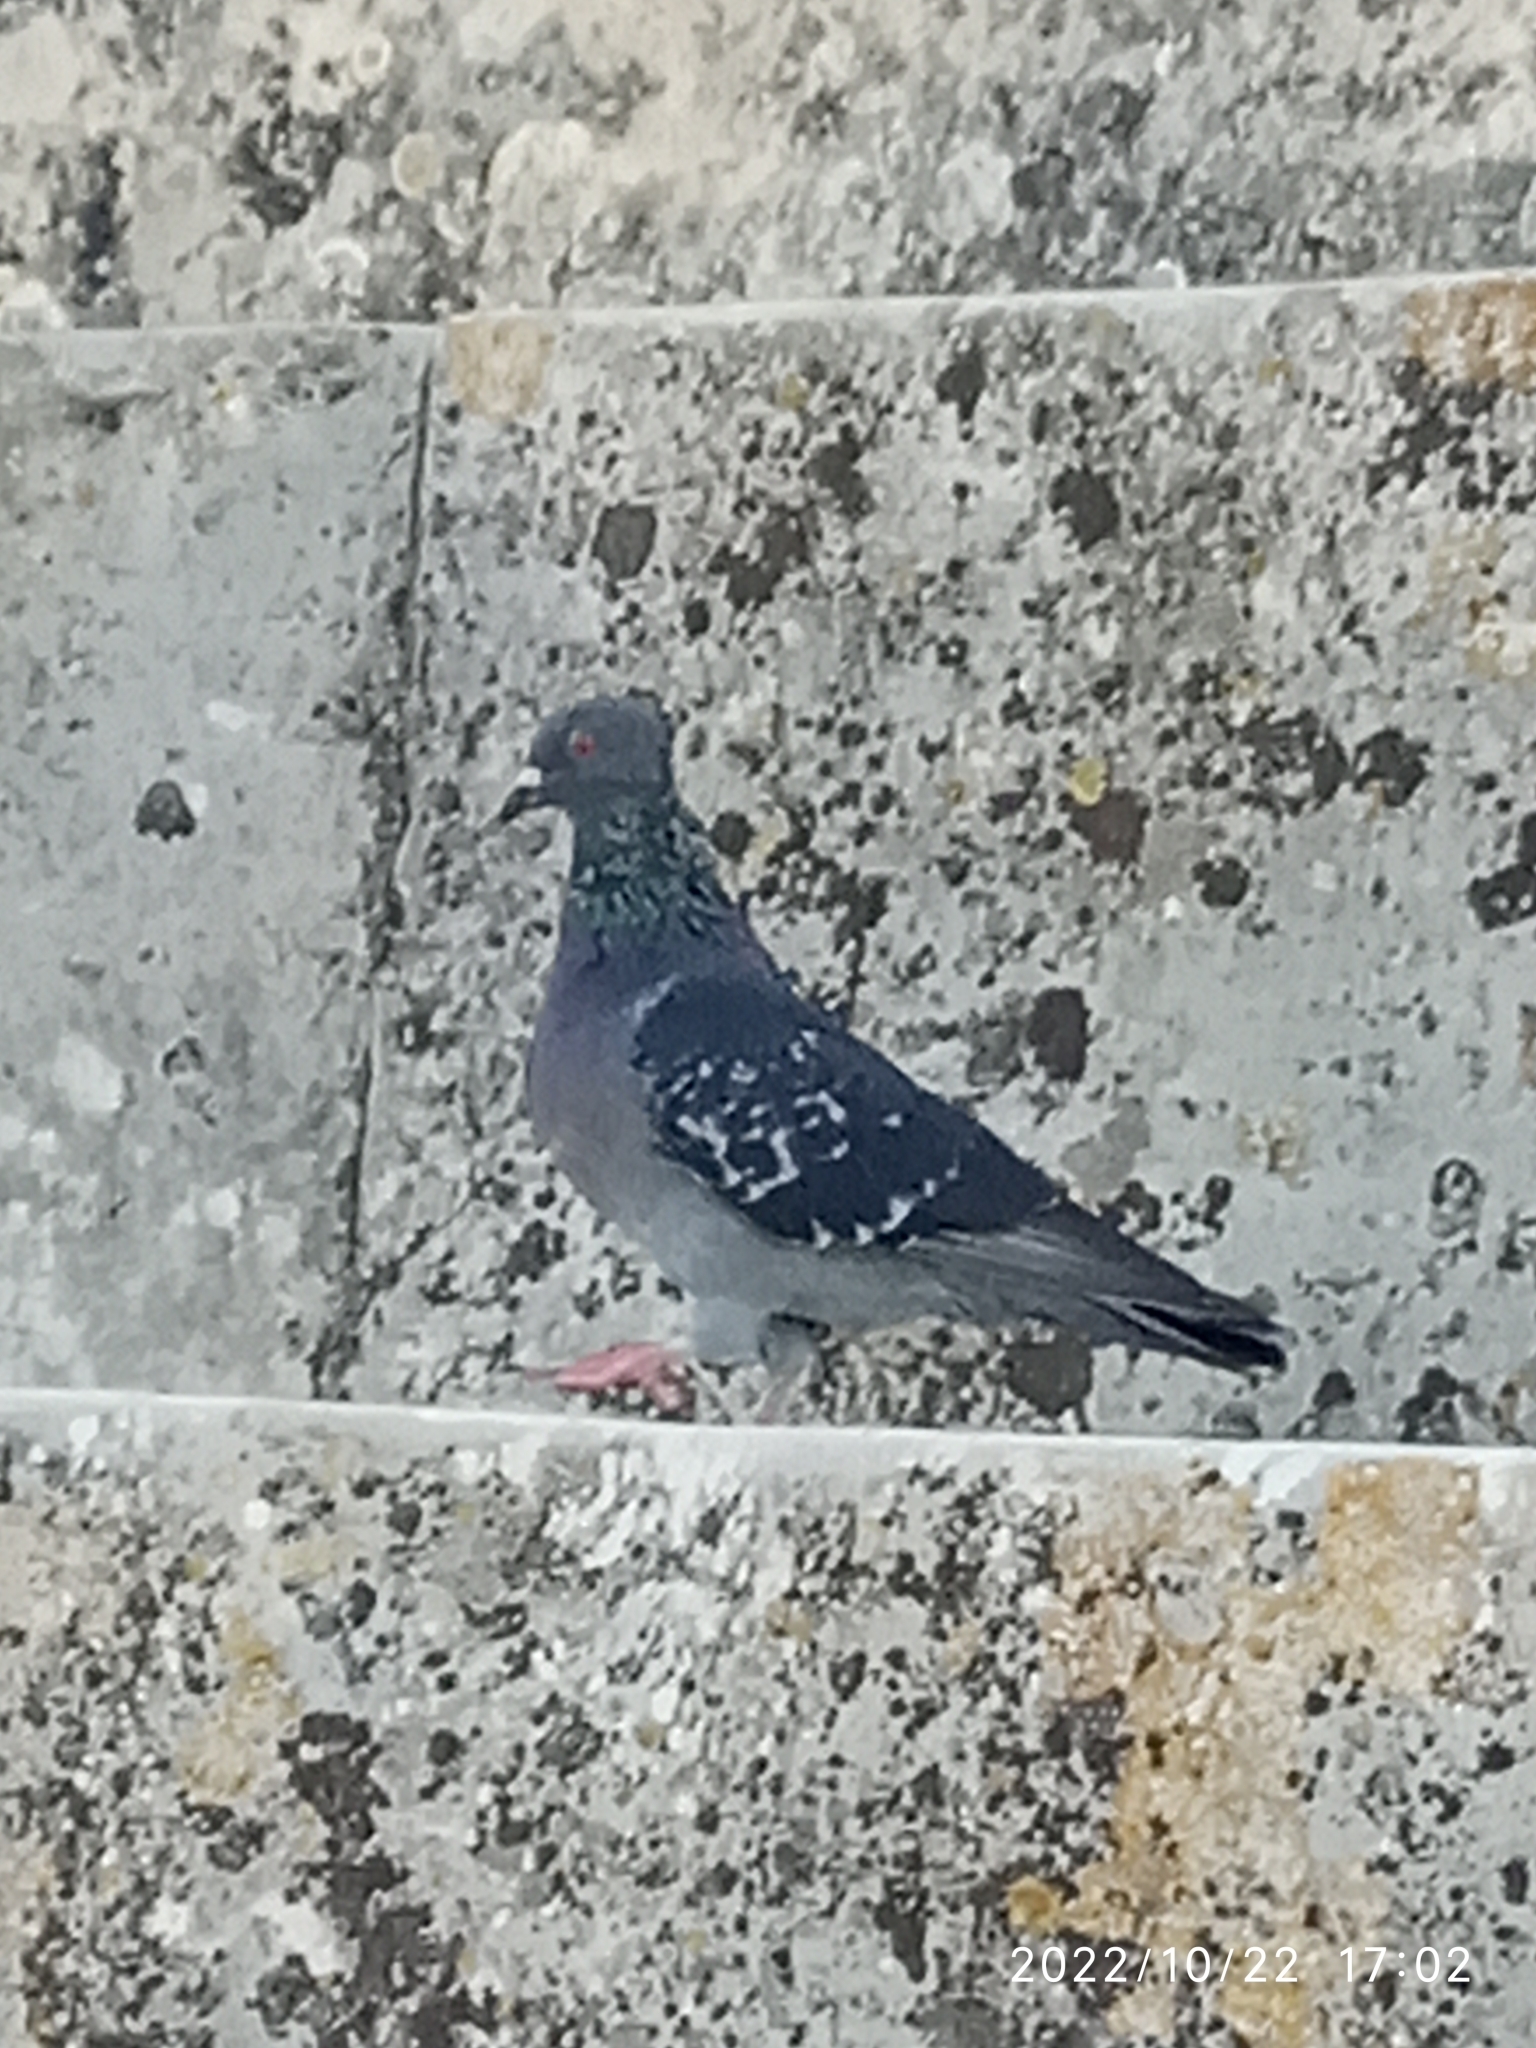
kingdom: Animalia
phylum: Chordata
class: Aves
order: Columbiformes
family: Columbidae
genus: Columba
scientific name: Columba livia
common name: Rock pigeon
